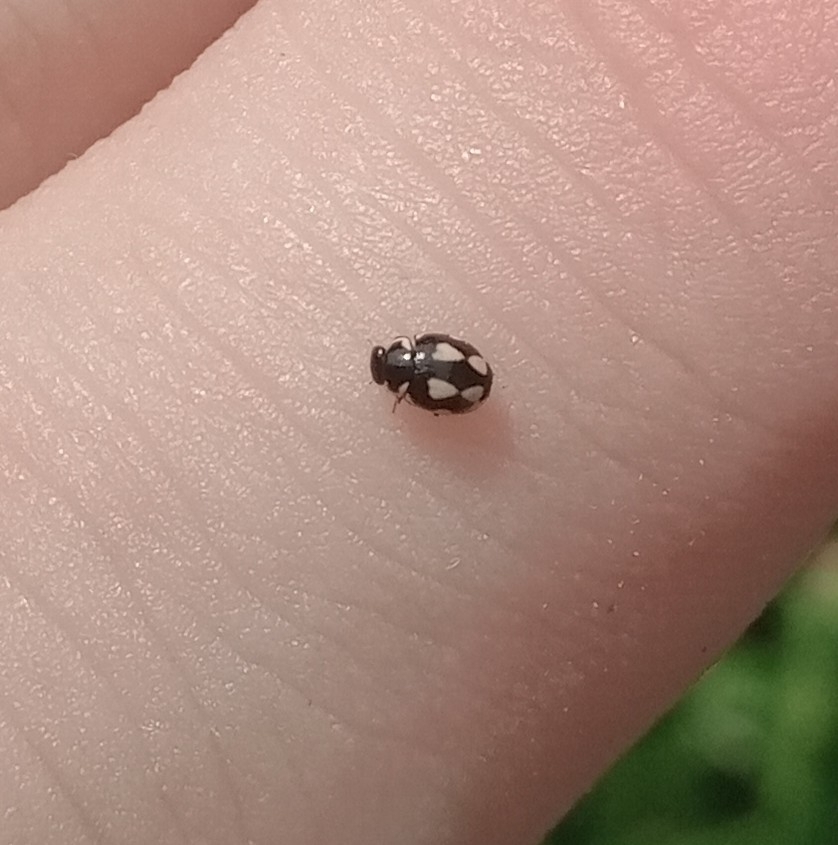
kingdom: Animalia
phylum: Arthropoda
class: Insecta
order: Coleoptera
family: Coccinellidae
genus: Hyperaspis
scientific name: Hyperaspis festiva
